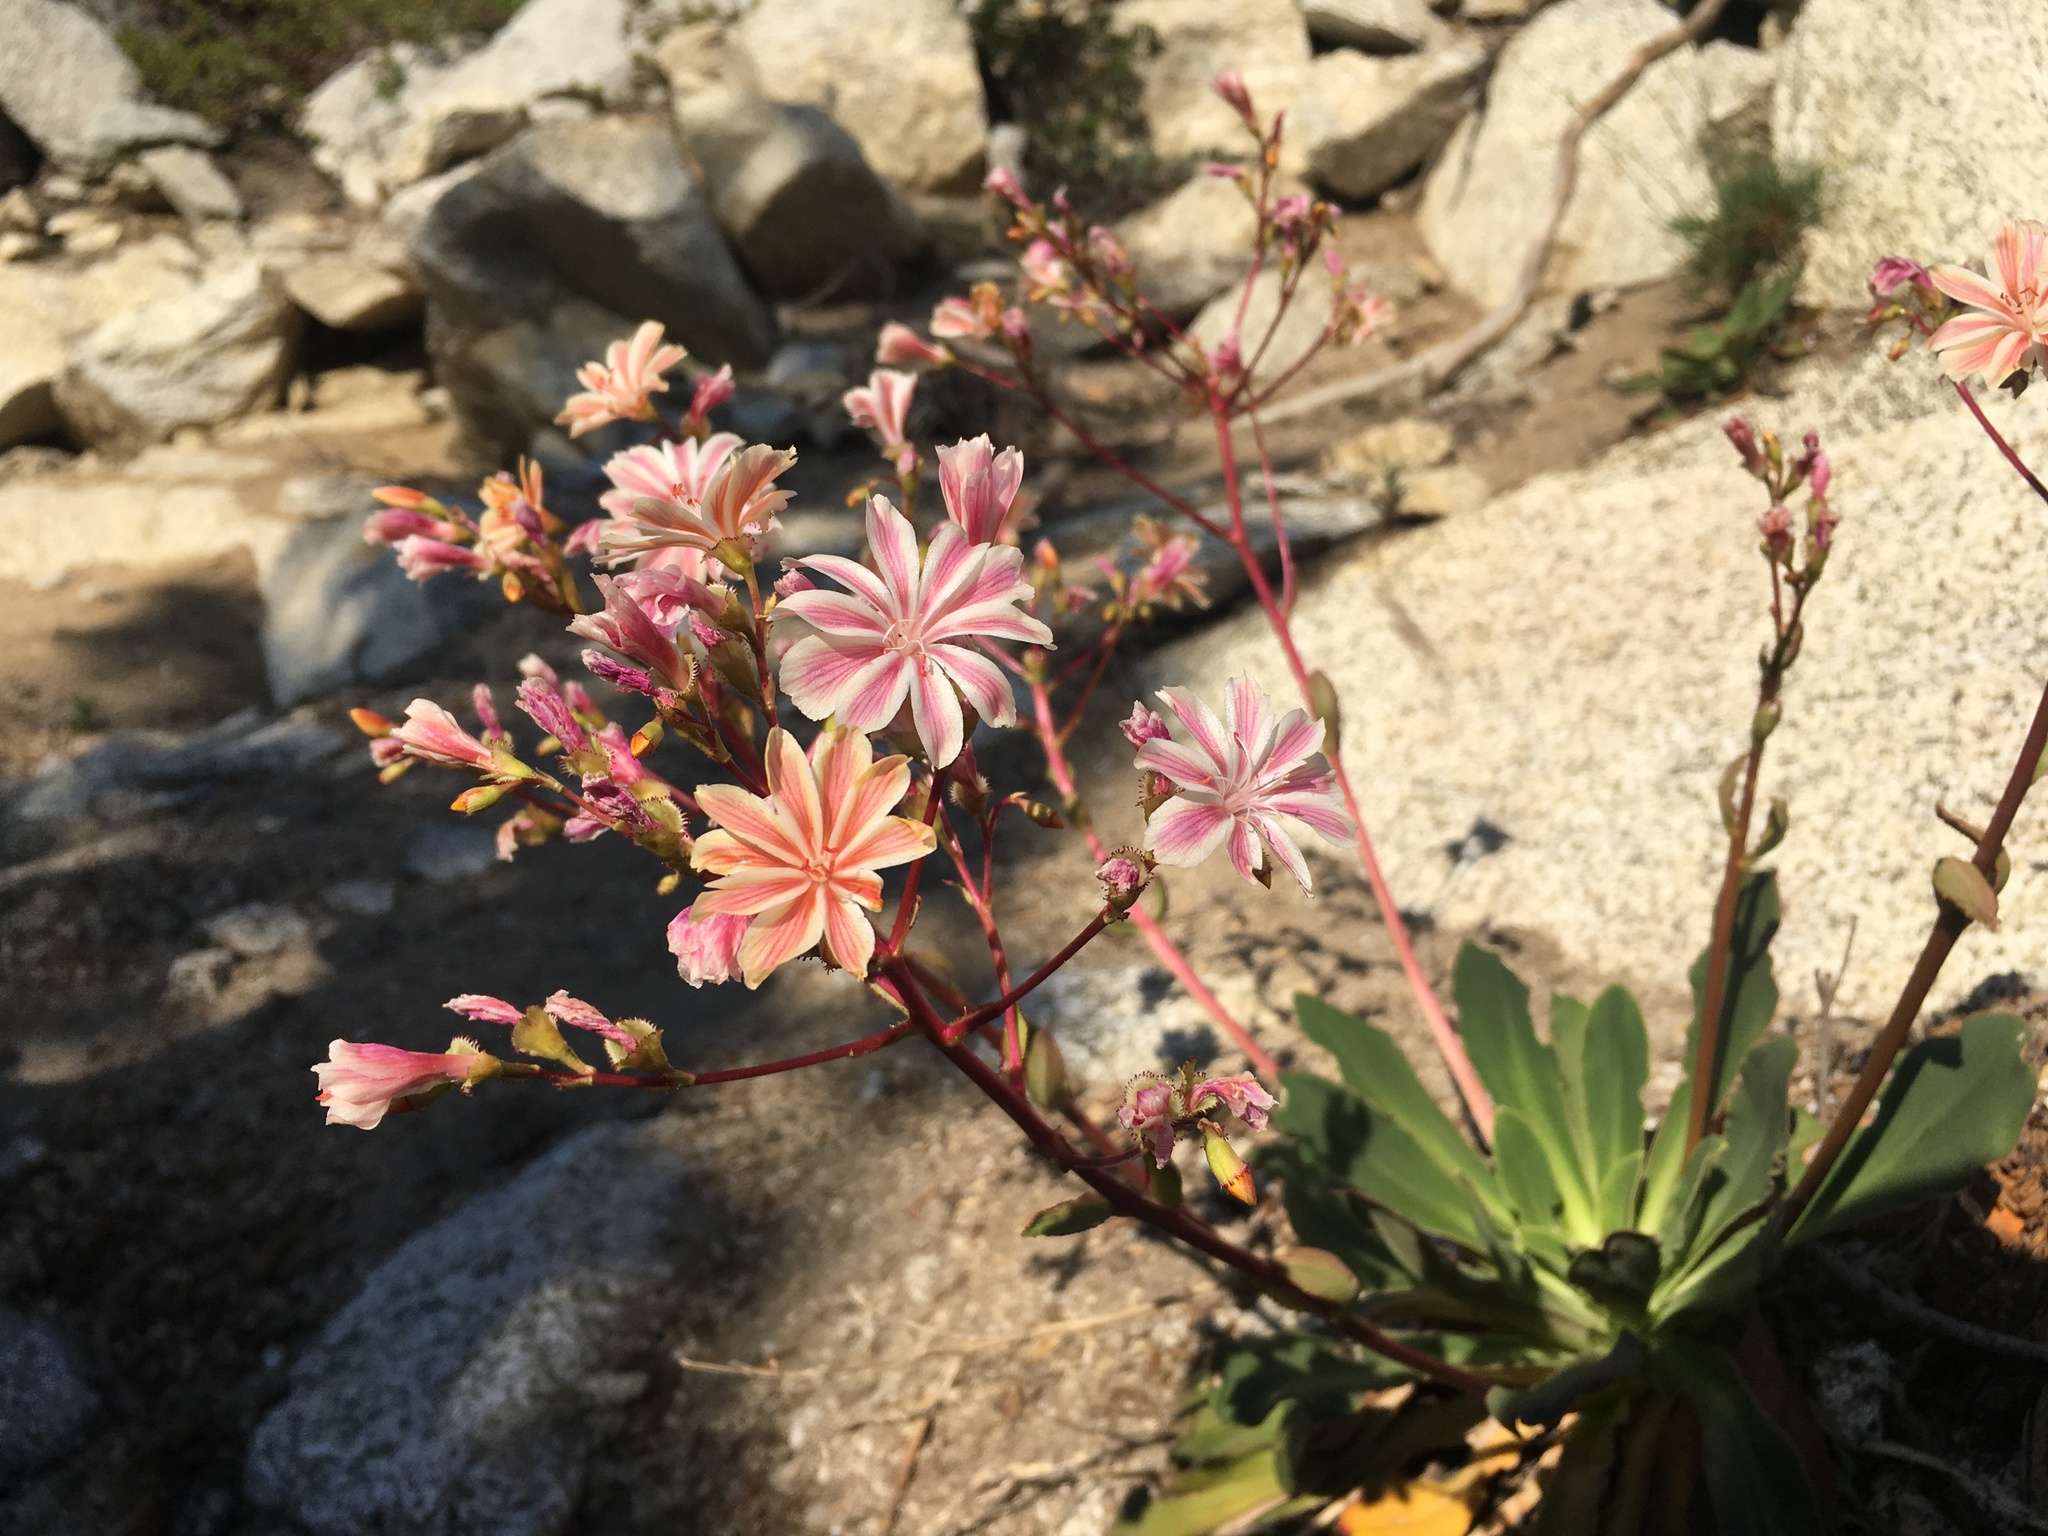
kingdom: Plantae
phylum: Tracheophyta
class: Magnoliopsida
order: Caryophyllales
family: Montiaceae
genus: Lewisia
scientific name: Lewisia cotyledon
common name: Siskiyou lewisia
